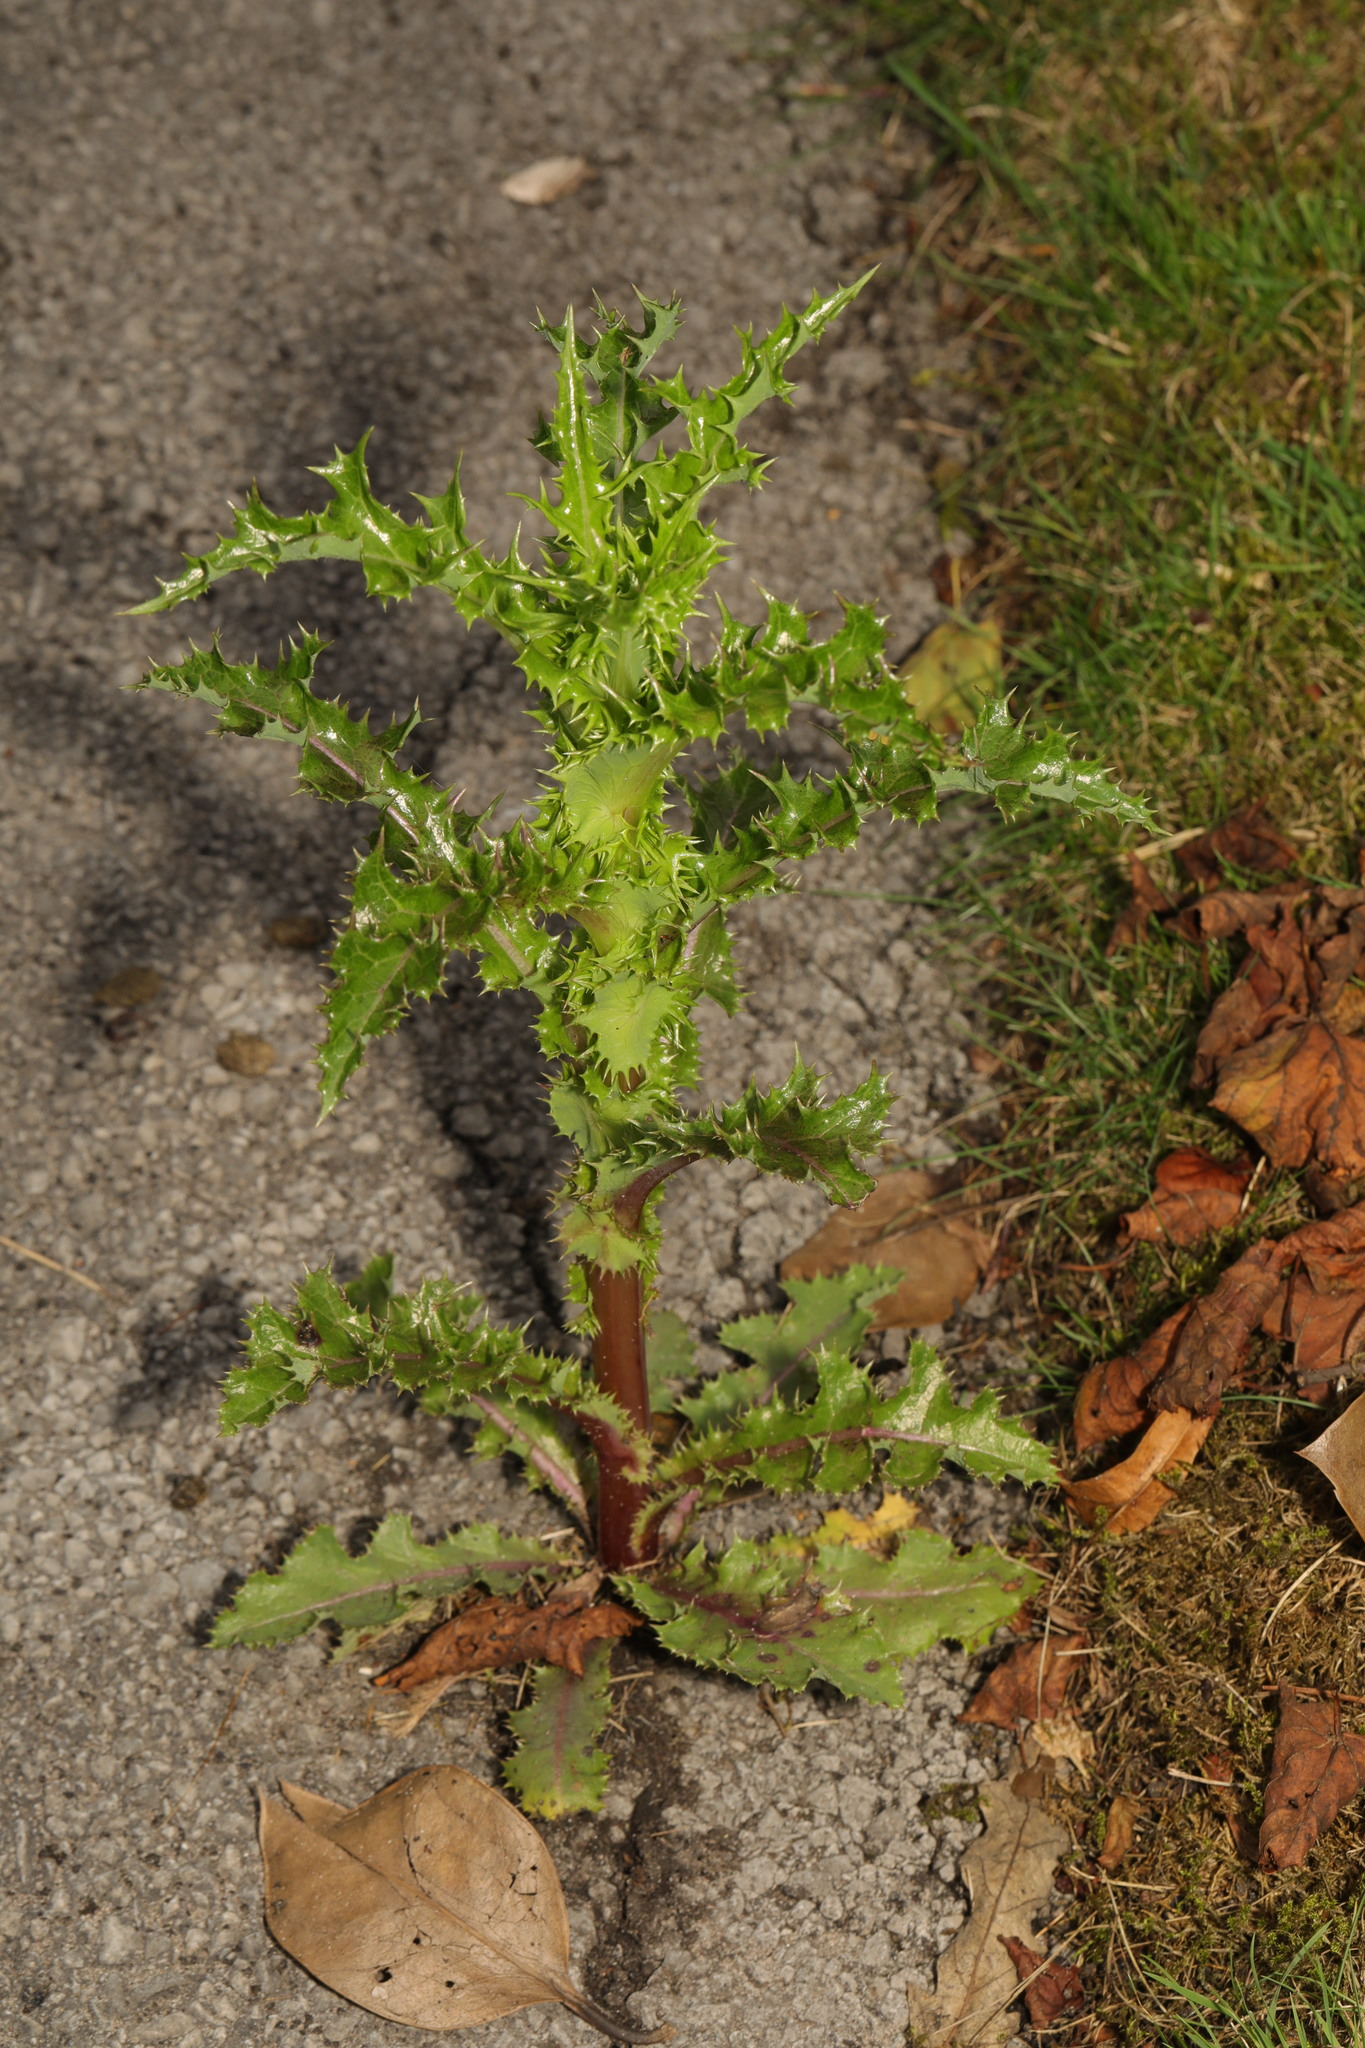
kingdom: Plantae
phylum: Tracheophyta
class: Magnoliopsida
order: Asterales
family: Asteraceae
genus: Sonchus
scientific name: Sonchus asper
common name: Prickly sow-thistle
